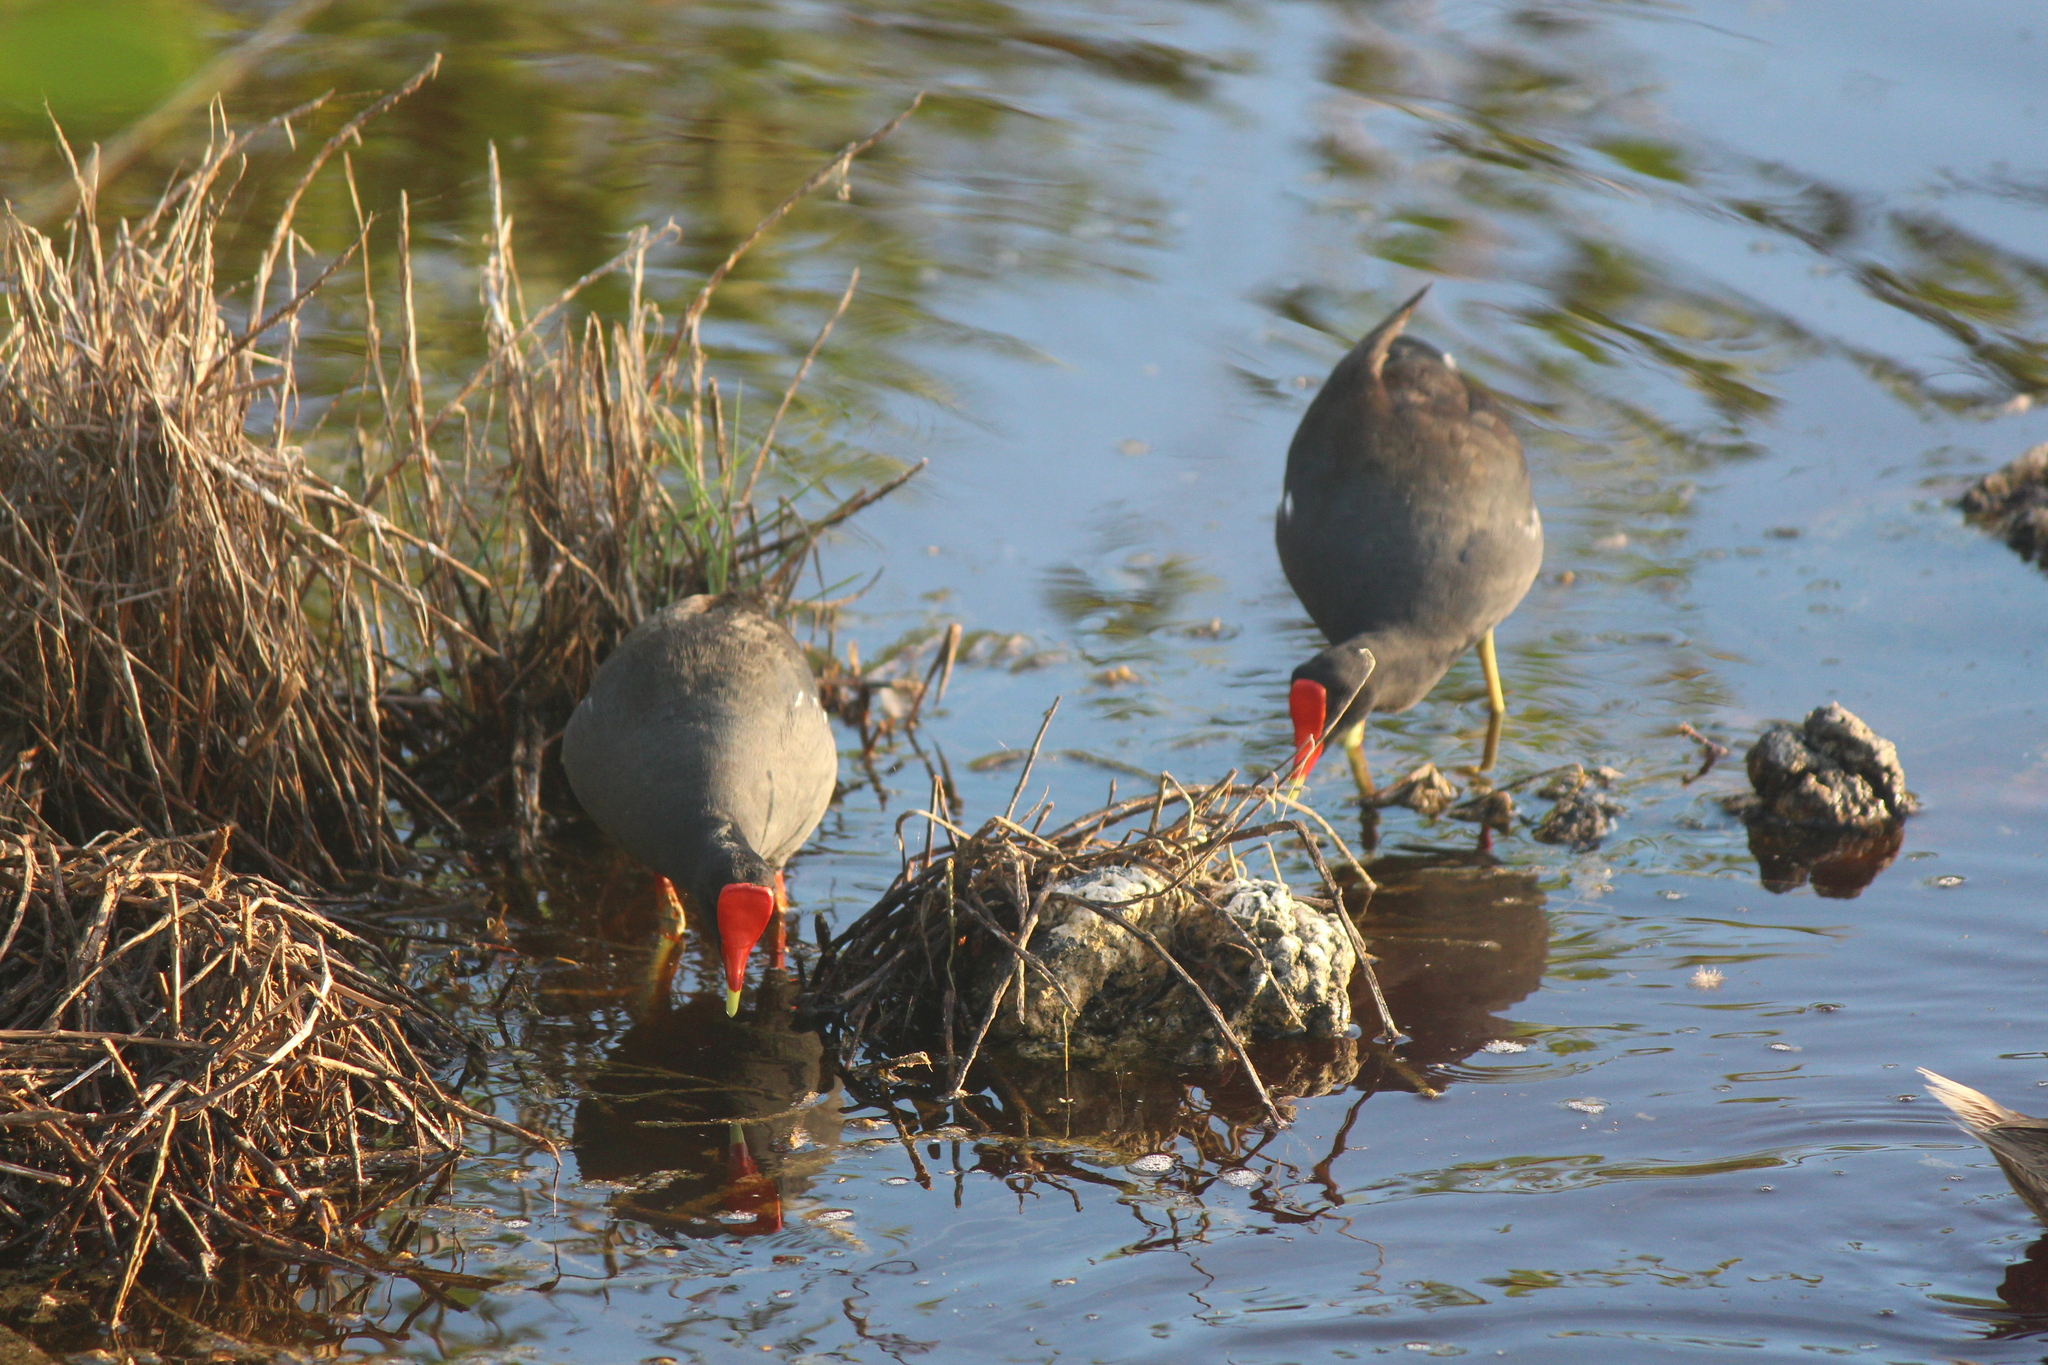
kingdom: Animalia
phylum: Chordata
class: Aves
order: Gruiformes
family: Rallidae
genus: Gallinula
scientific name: Gallinula chloropus
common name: Common moorhen
